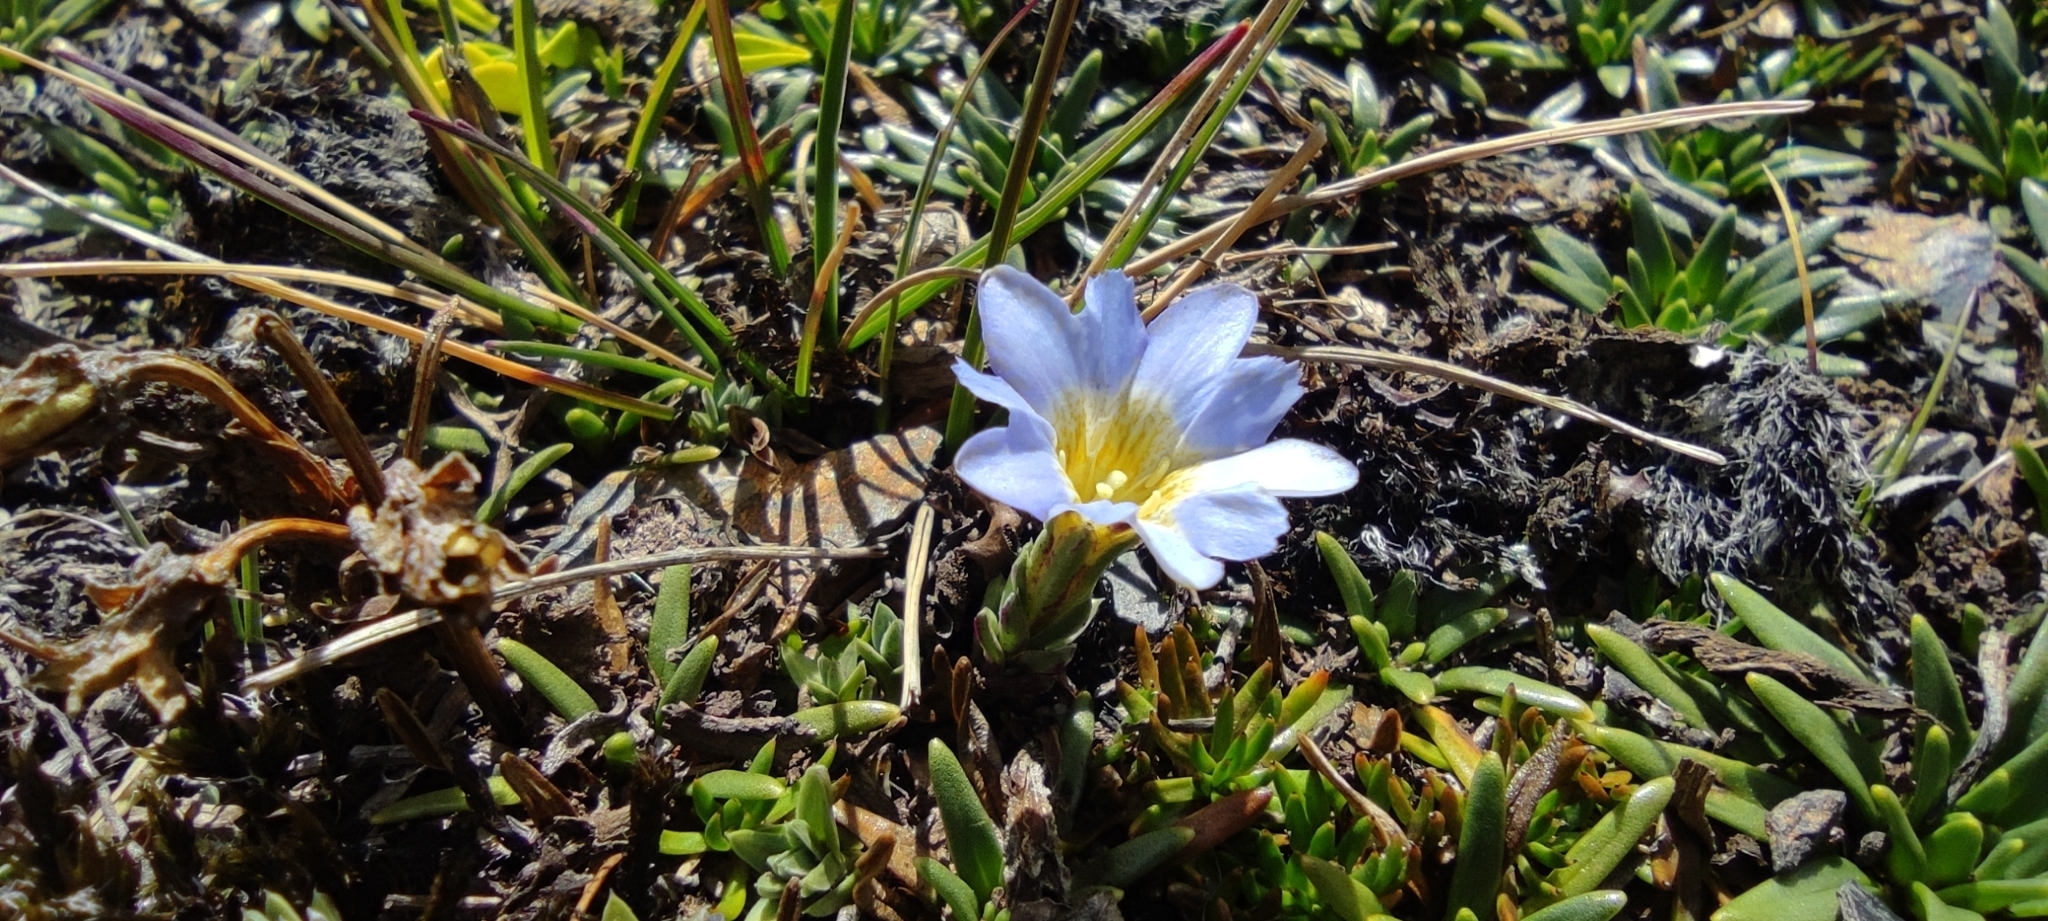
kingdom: Plantae
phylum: Tracheophyta
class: Magnoliopsida
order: Gentianales
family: Gentianaceae
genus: Gentiana
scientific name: Gentiana sedifolia
